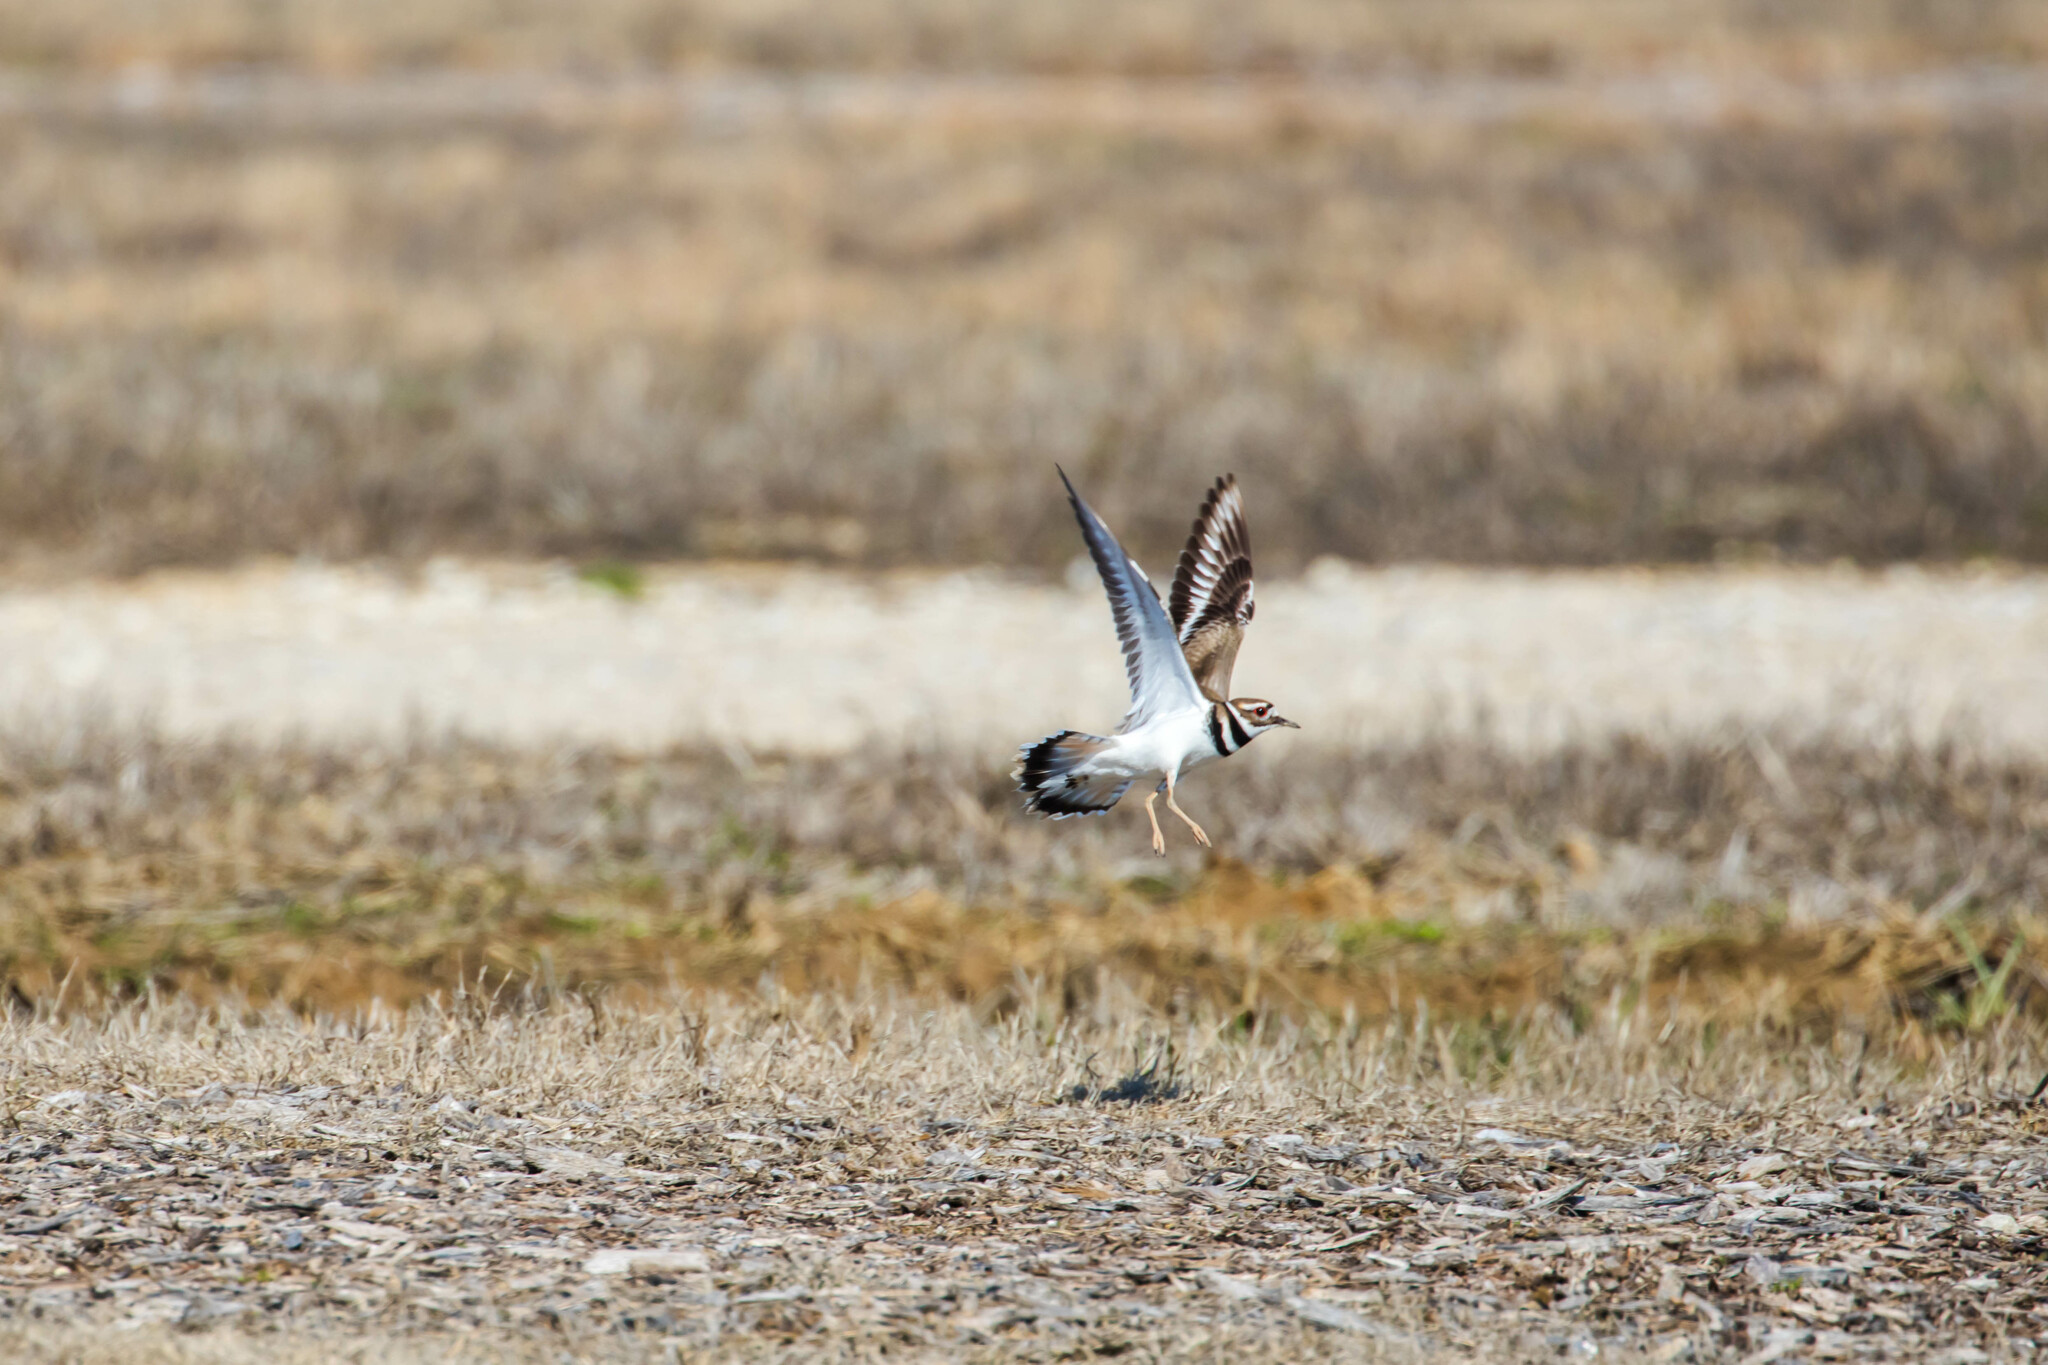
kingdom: Animalia
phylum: Chordata
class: Aves
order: Charadriiformes
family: Charadriidae
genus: Charadrius
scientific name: Charadrius vociferus
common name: Killdeer
